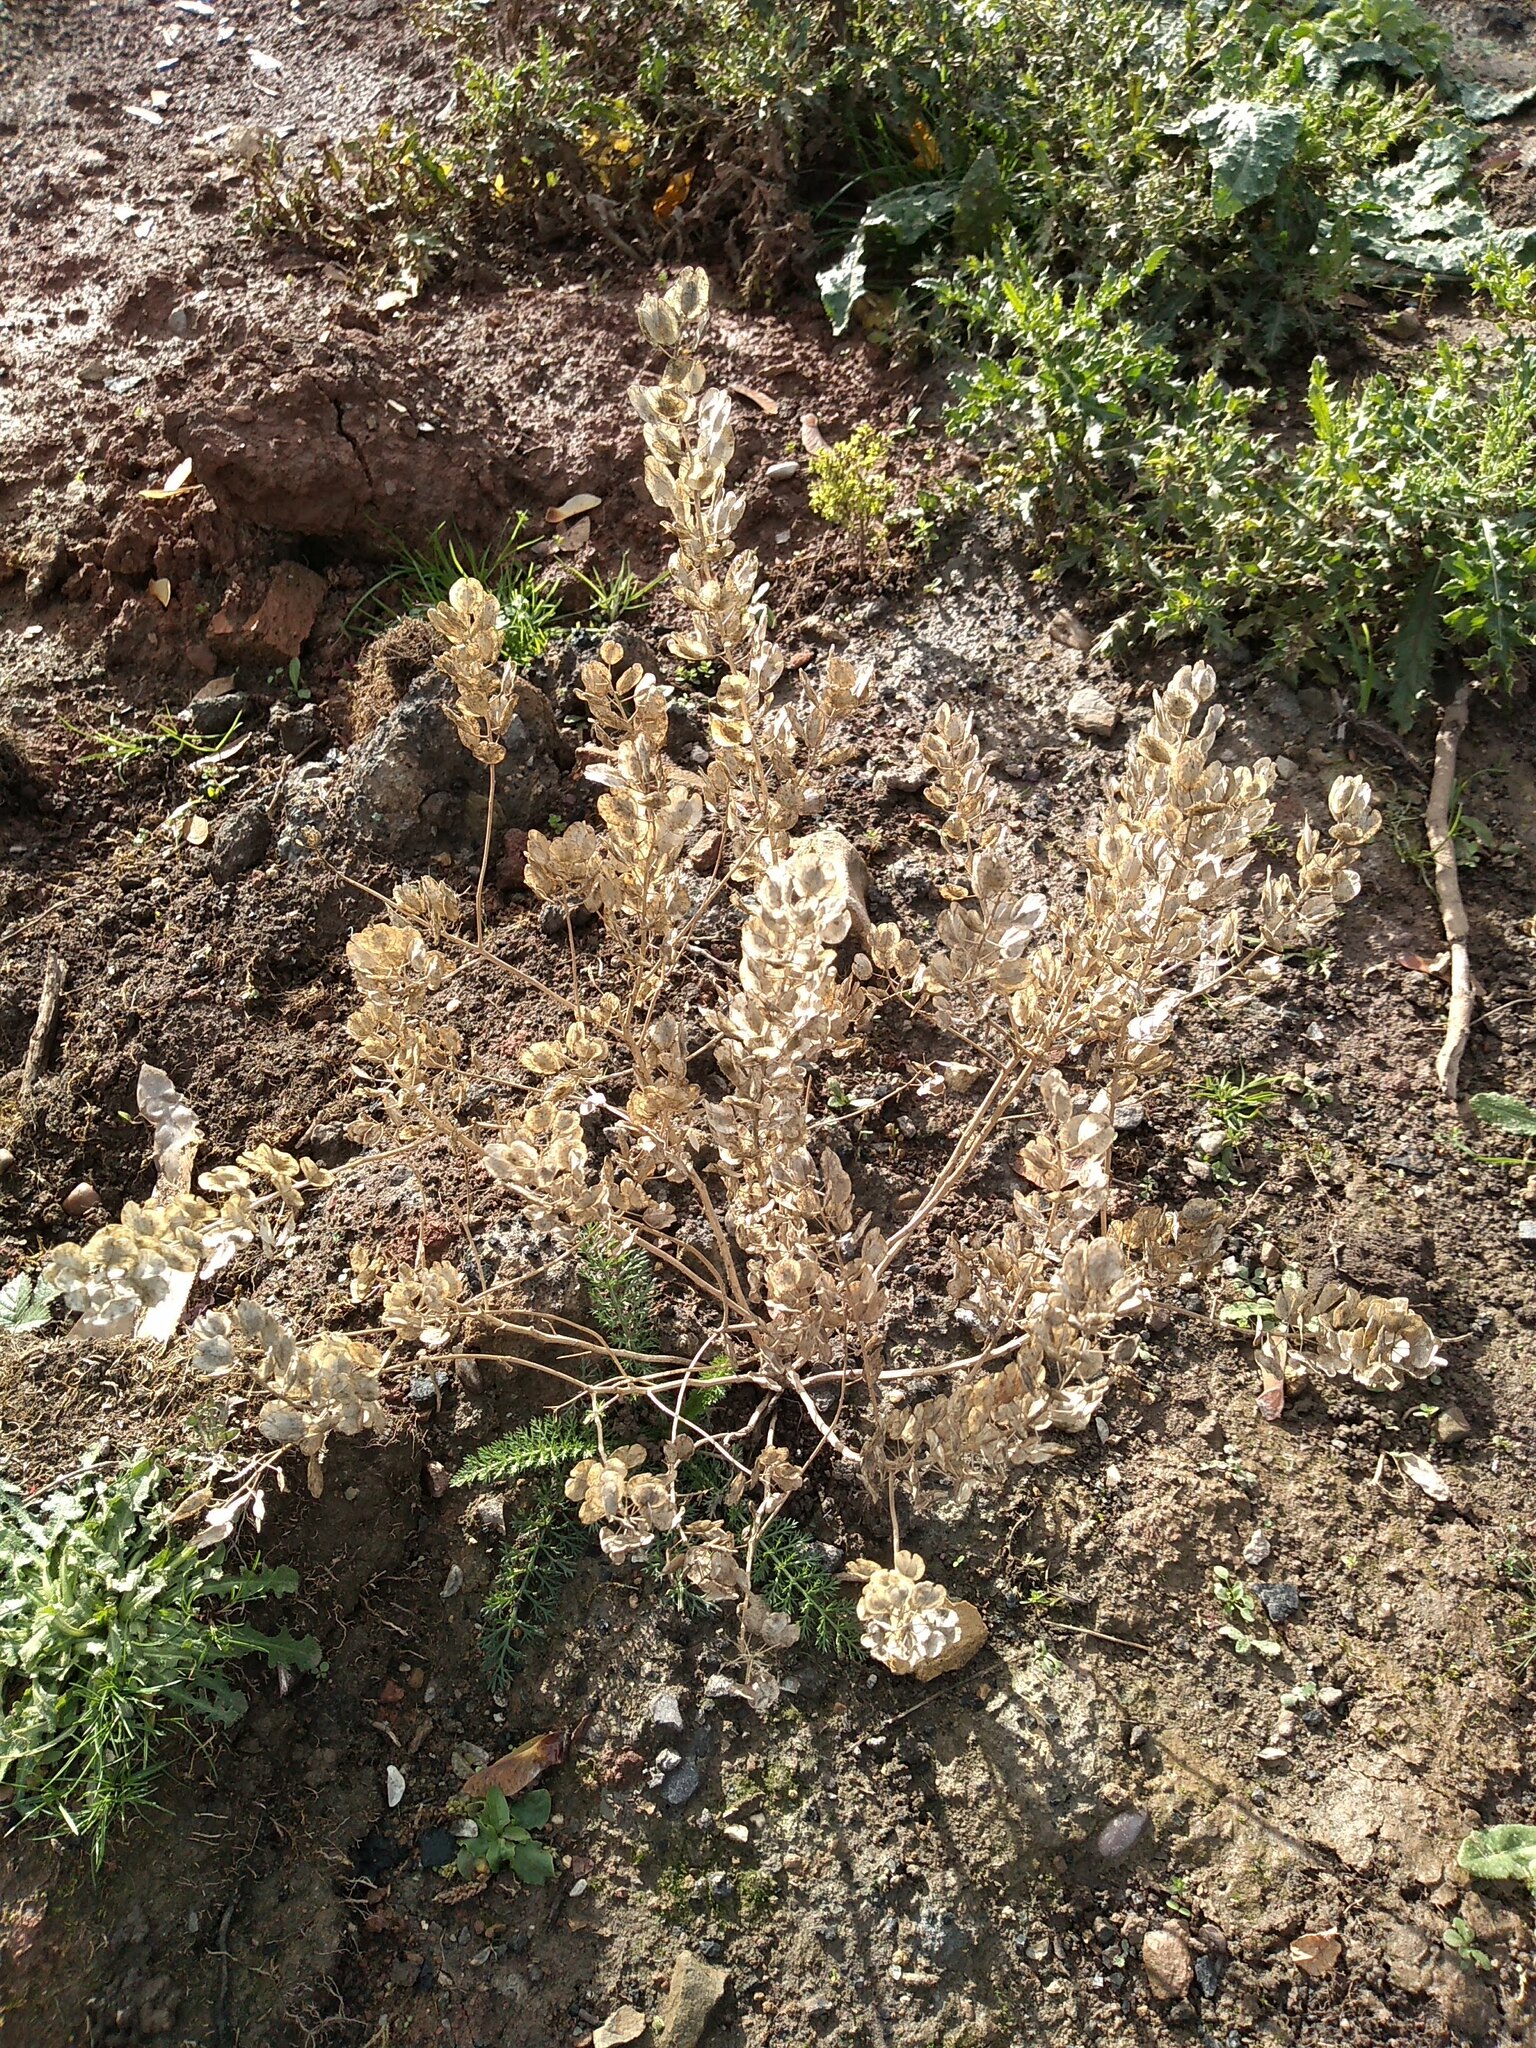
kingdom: Plantae
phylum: Tracheophyta
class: Magnoliopsida
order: Brassicales
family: Brassicaceae
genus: Thlaspi
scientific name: Thlaspi arvense
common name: Field pennycress
